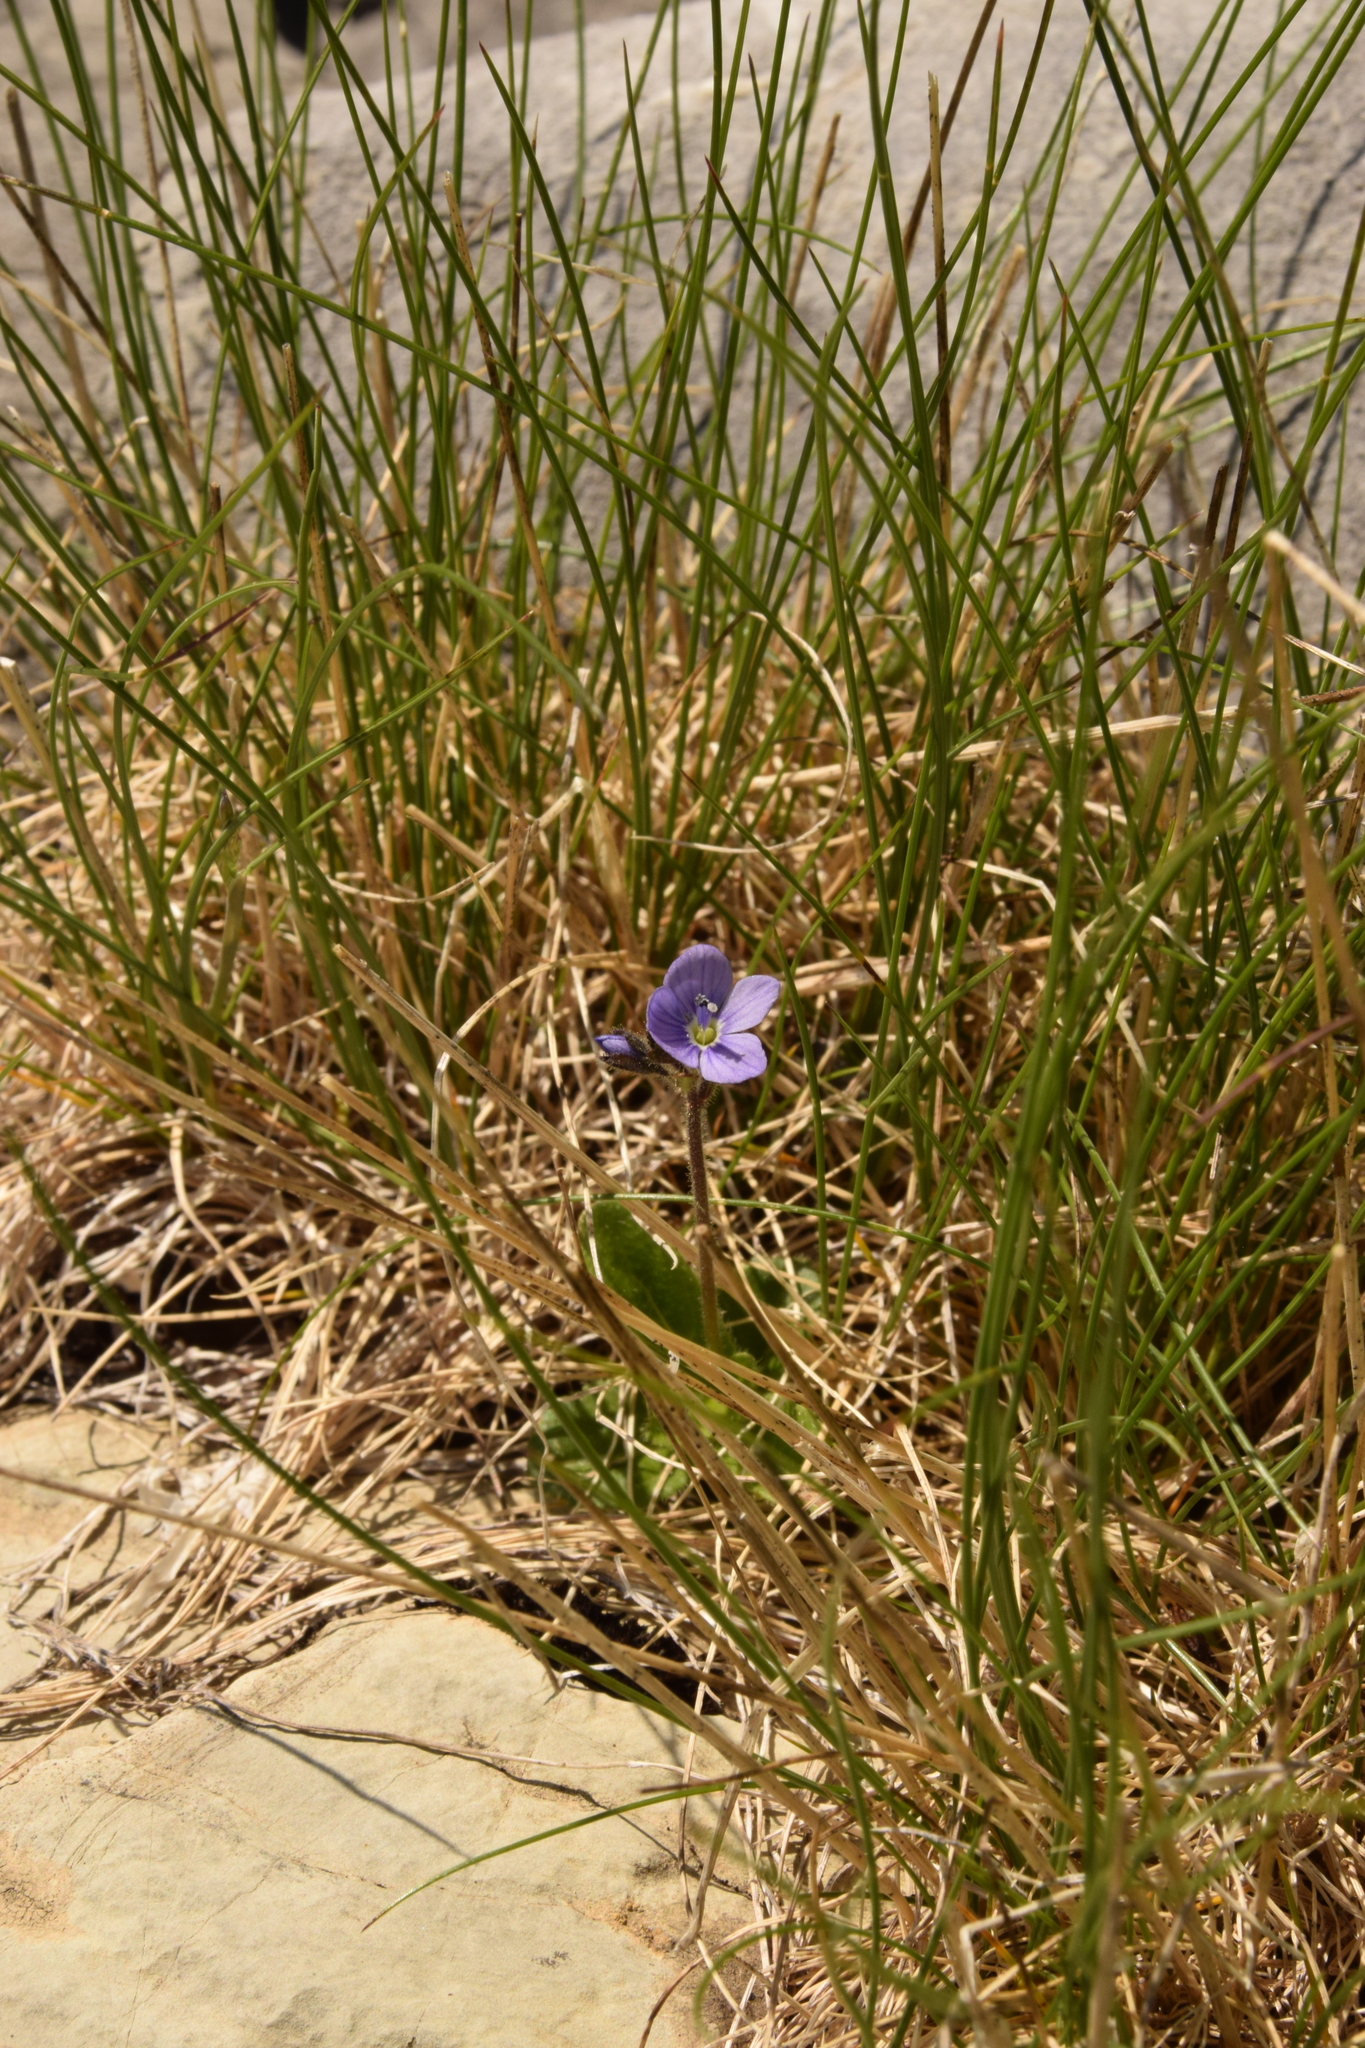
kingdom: Plantae
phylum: Tracheophyta
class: Magnoliopsida
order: Lamiales
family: Plantaginaceae
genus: Veronica
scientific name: Veronica aphylla
